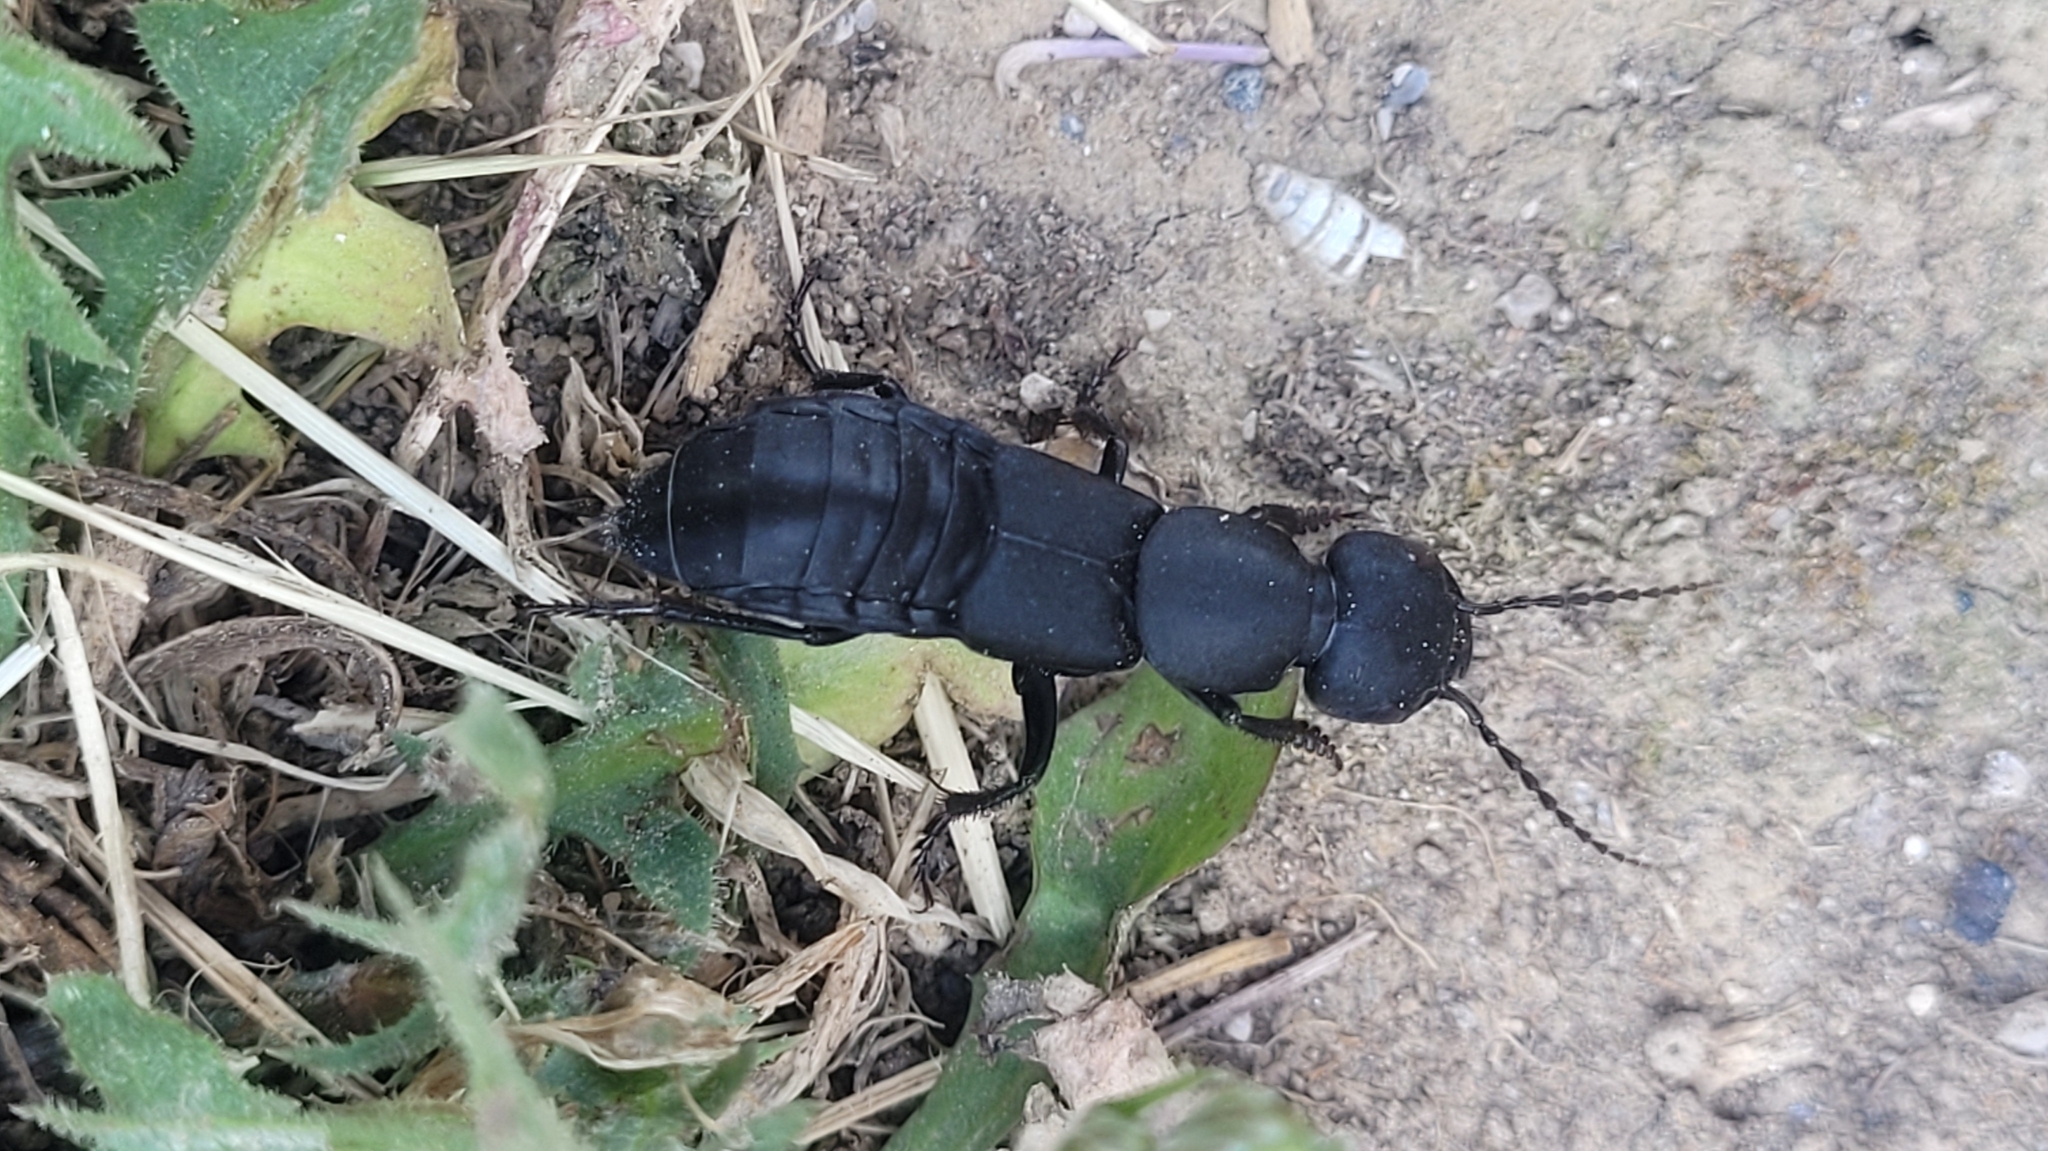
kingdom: Animalia
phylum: Arthropoda
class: Insecta
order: Coleoptera
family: Staphylinidae
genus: Ocypus
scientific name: Ocypus olens
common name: Devil's coach-horse
